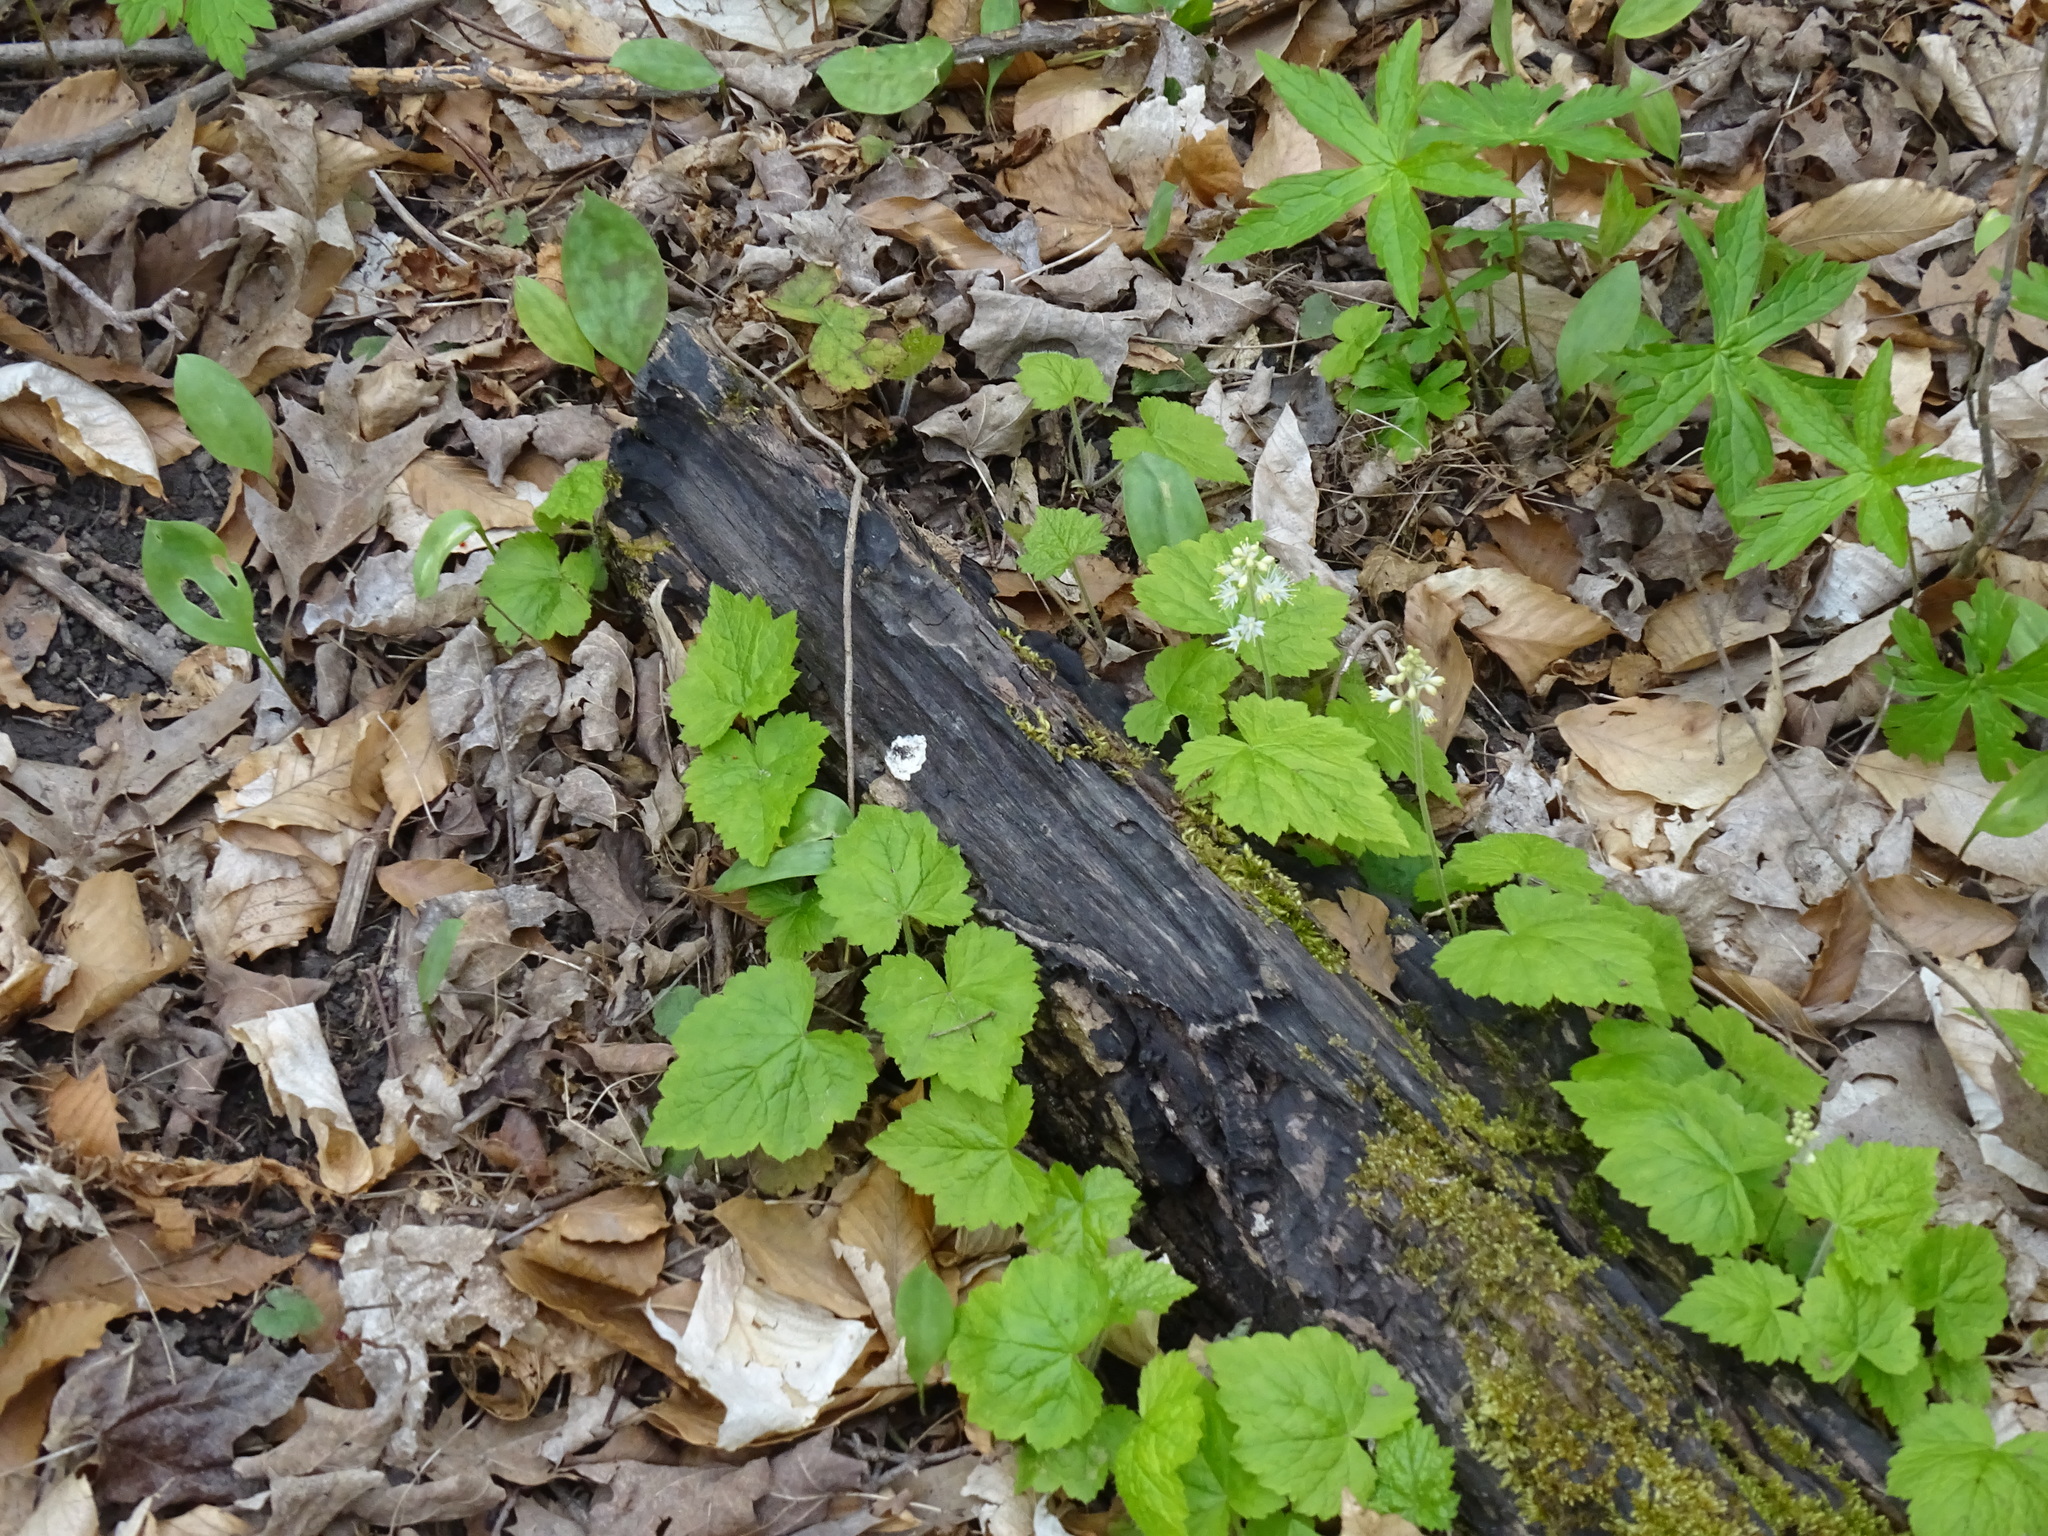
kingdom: Plantae
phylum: Tracheophyta
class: Magnoliopsida
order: Saxifragales
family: Saxifragaceae
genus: Tiarella
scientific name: Tiarella stolonifera
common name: Stoloniferous foamflower
